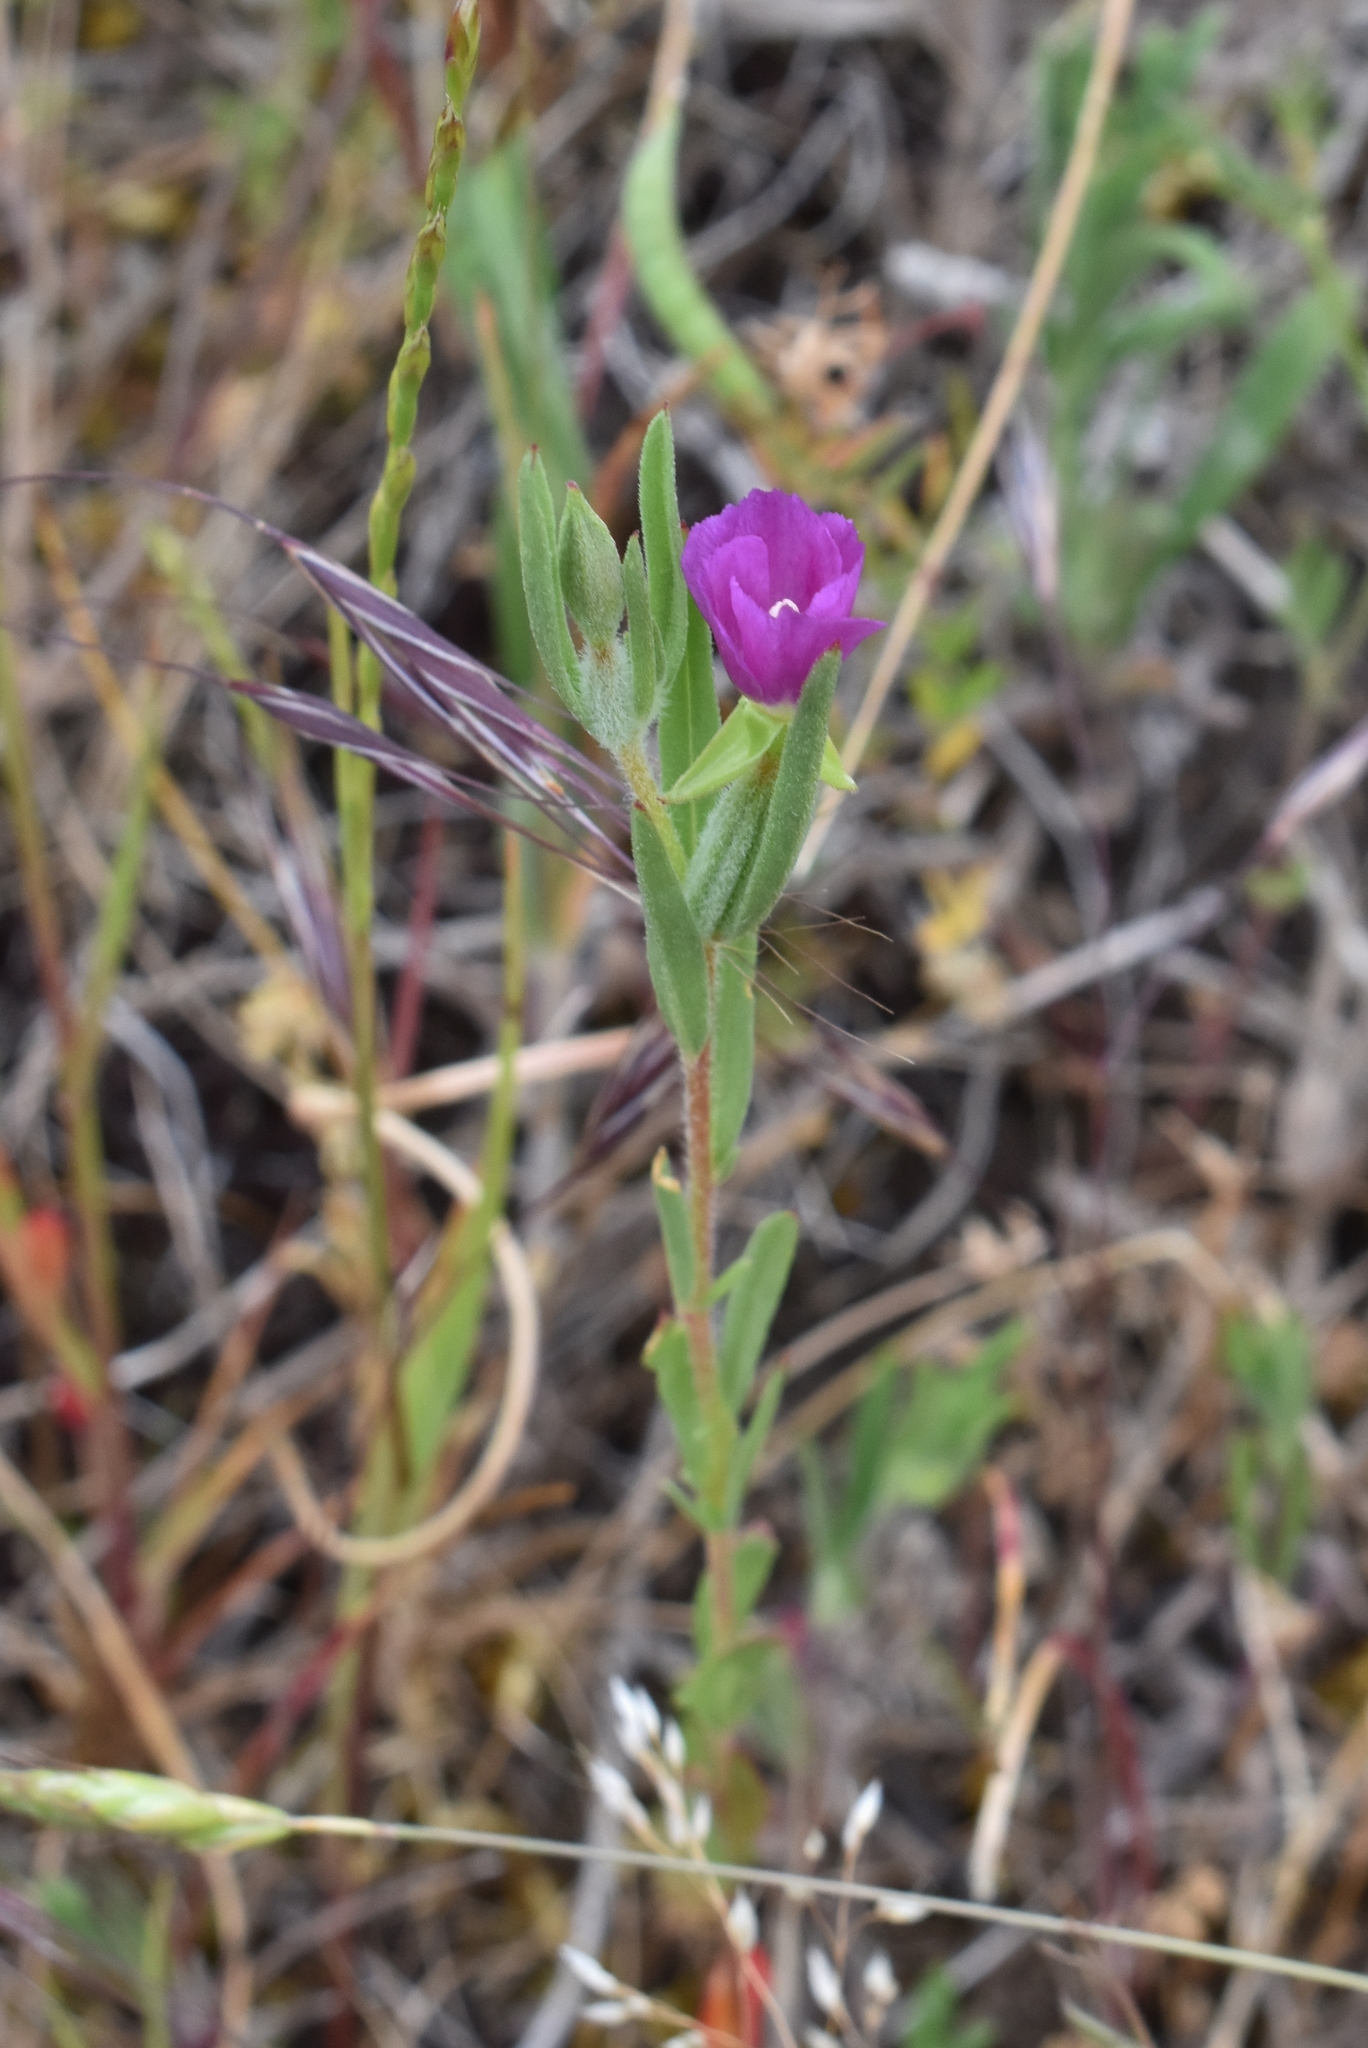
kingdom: Plantae
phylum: Tracheophyta
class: Magnoliopsida
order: Myrtales
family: Onagraceae
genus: Clarkia
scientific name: Clarkia purpurea
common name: Purple clarkia
